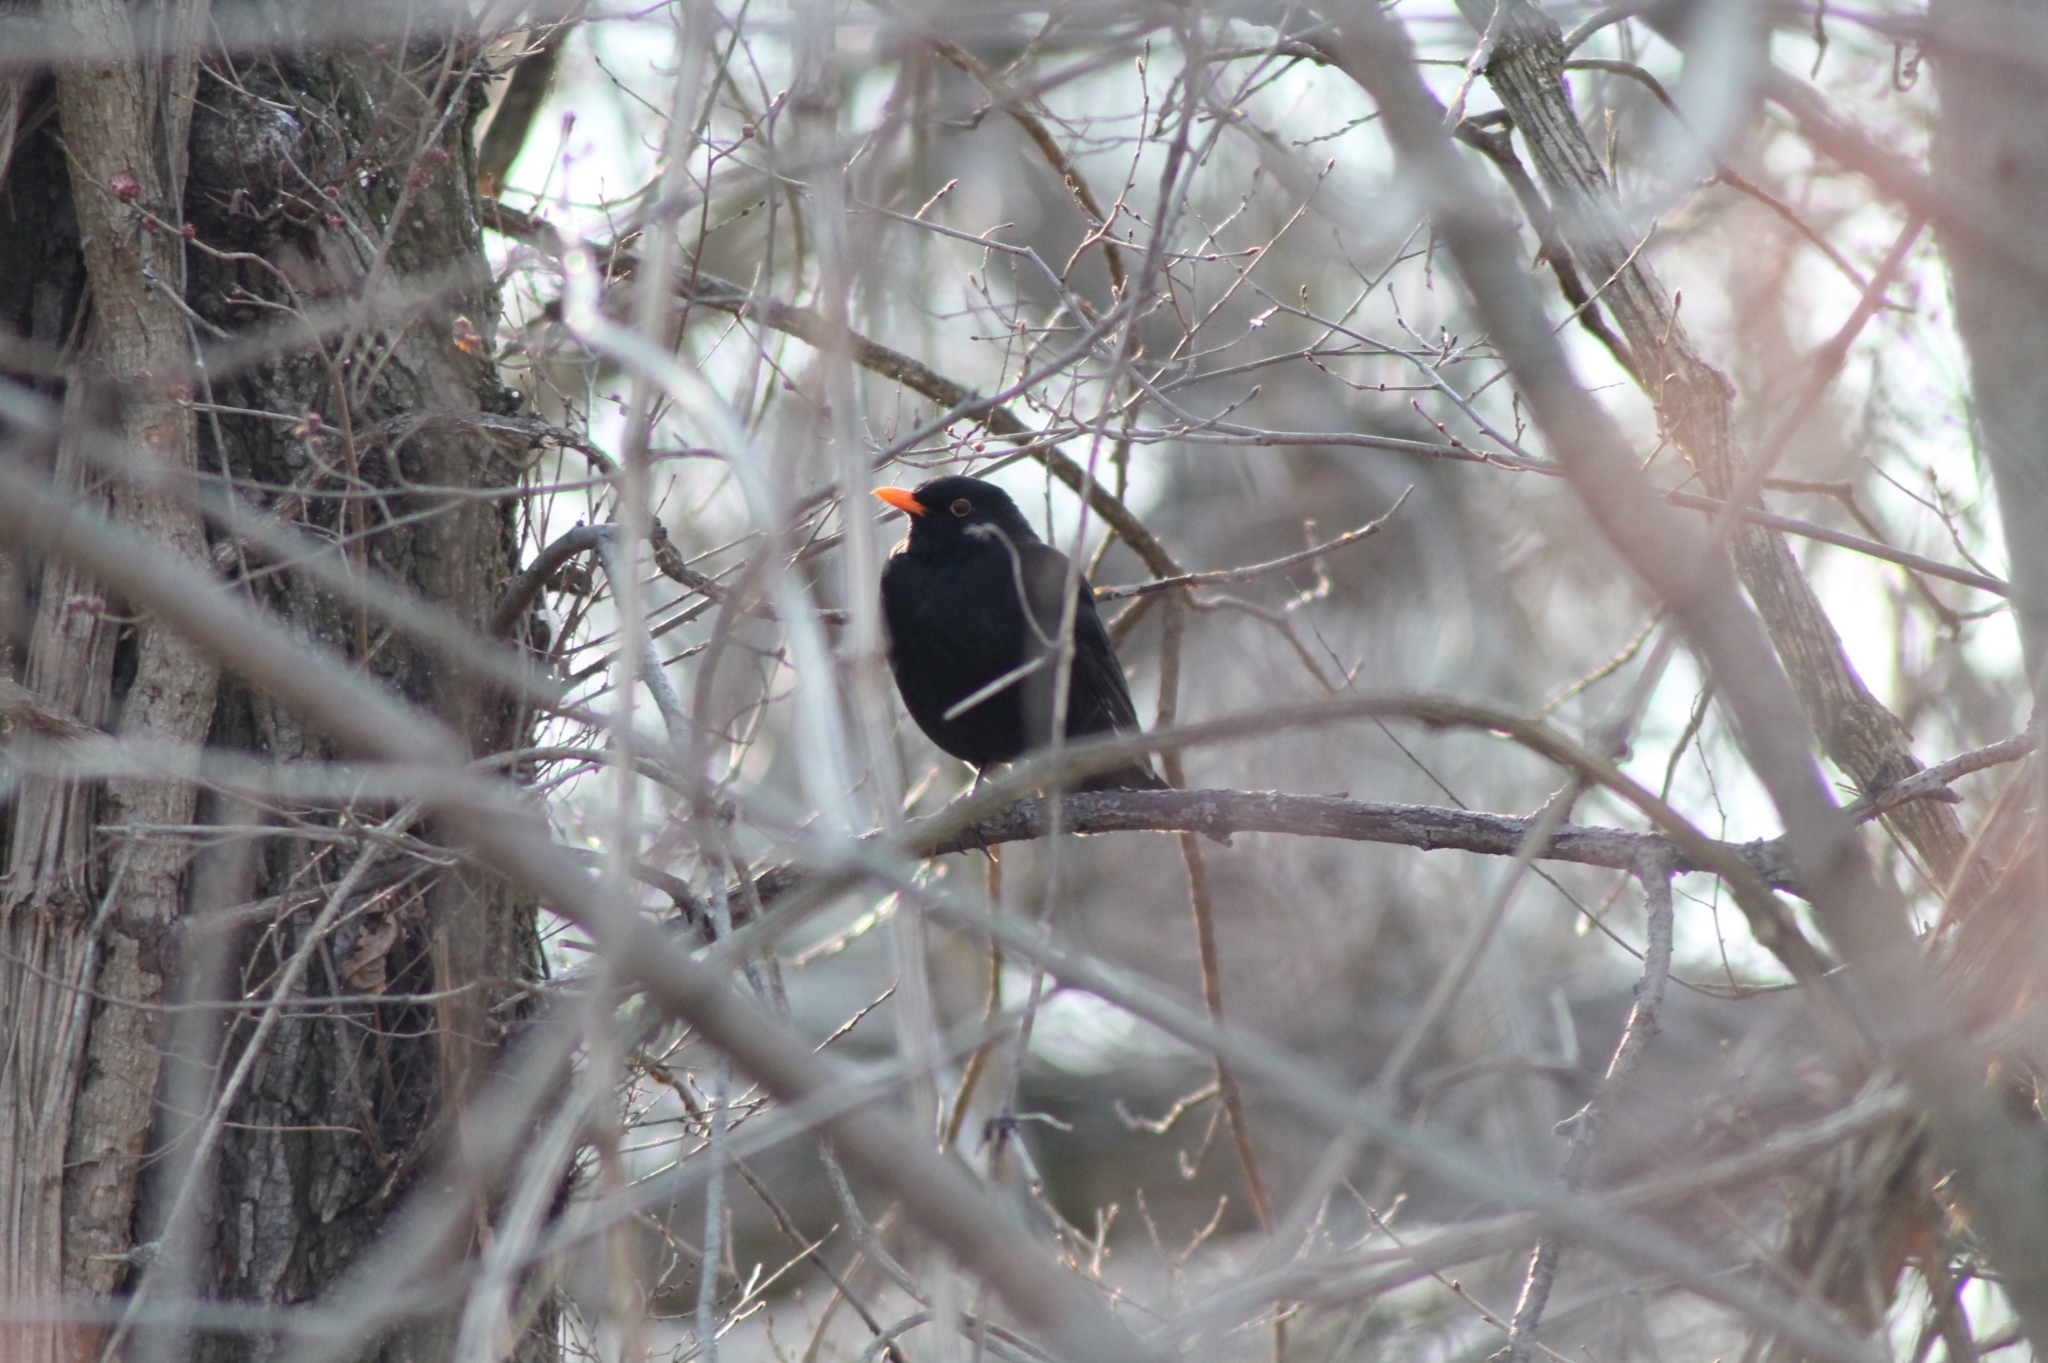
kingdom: Animalia
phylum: Chordata
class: Aves
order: Passeriformes
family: Turdidae
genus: Turdus
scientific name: Turdus merula
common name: Common blackbird
